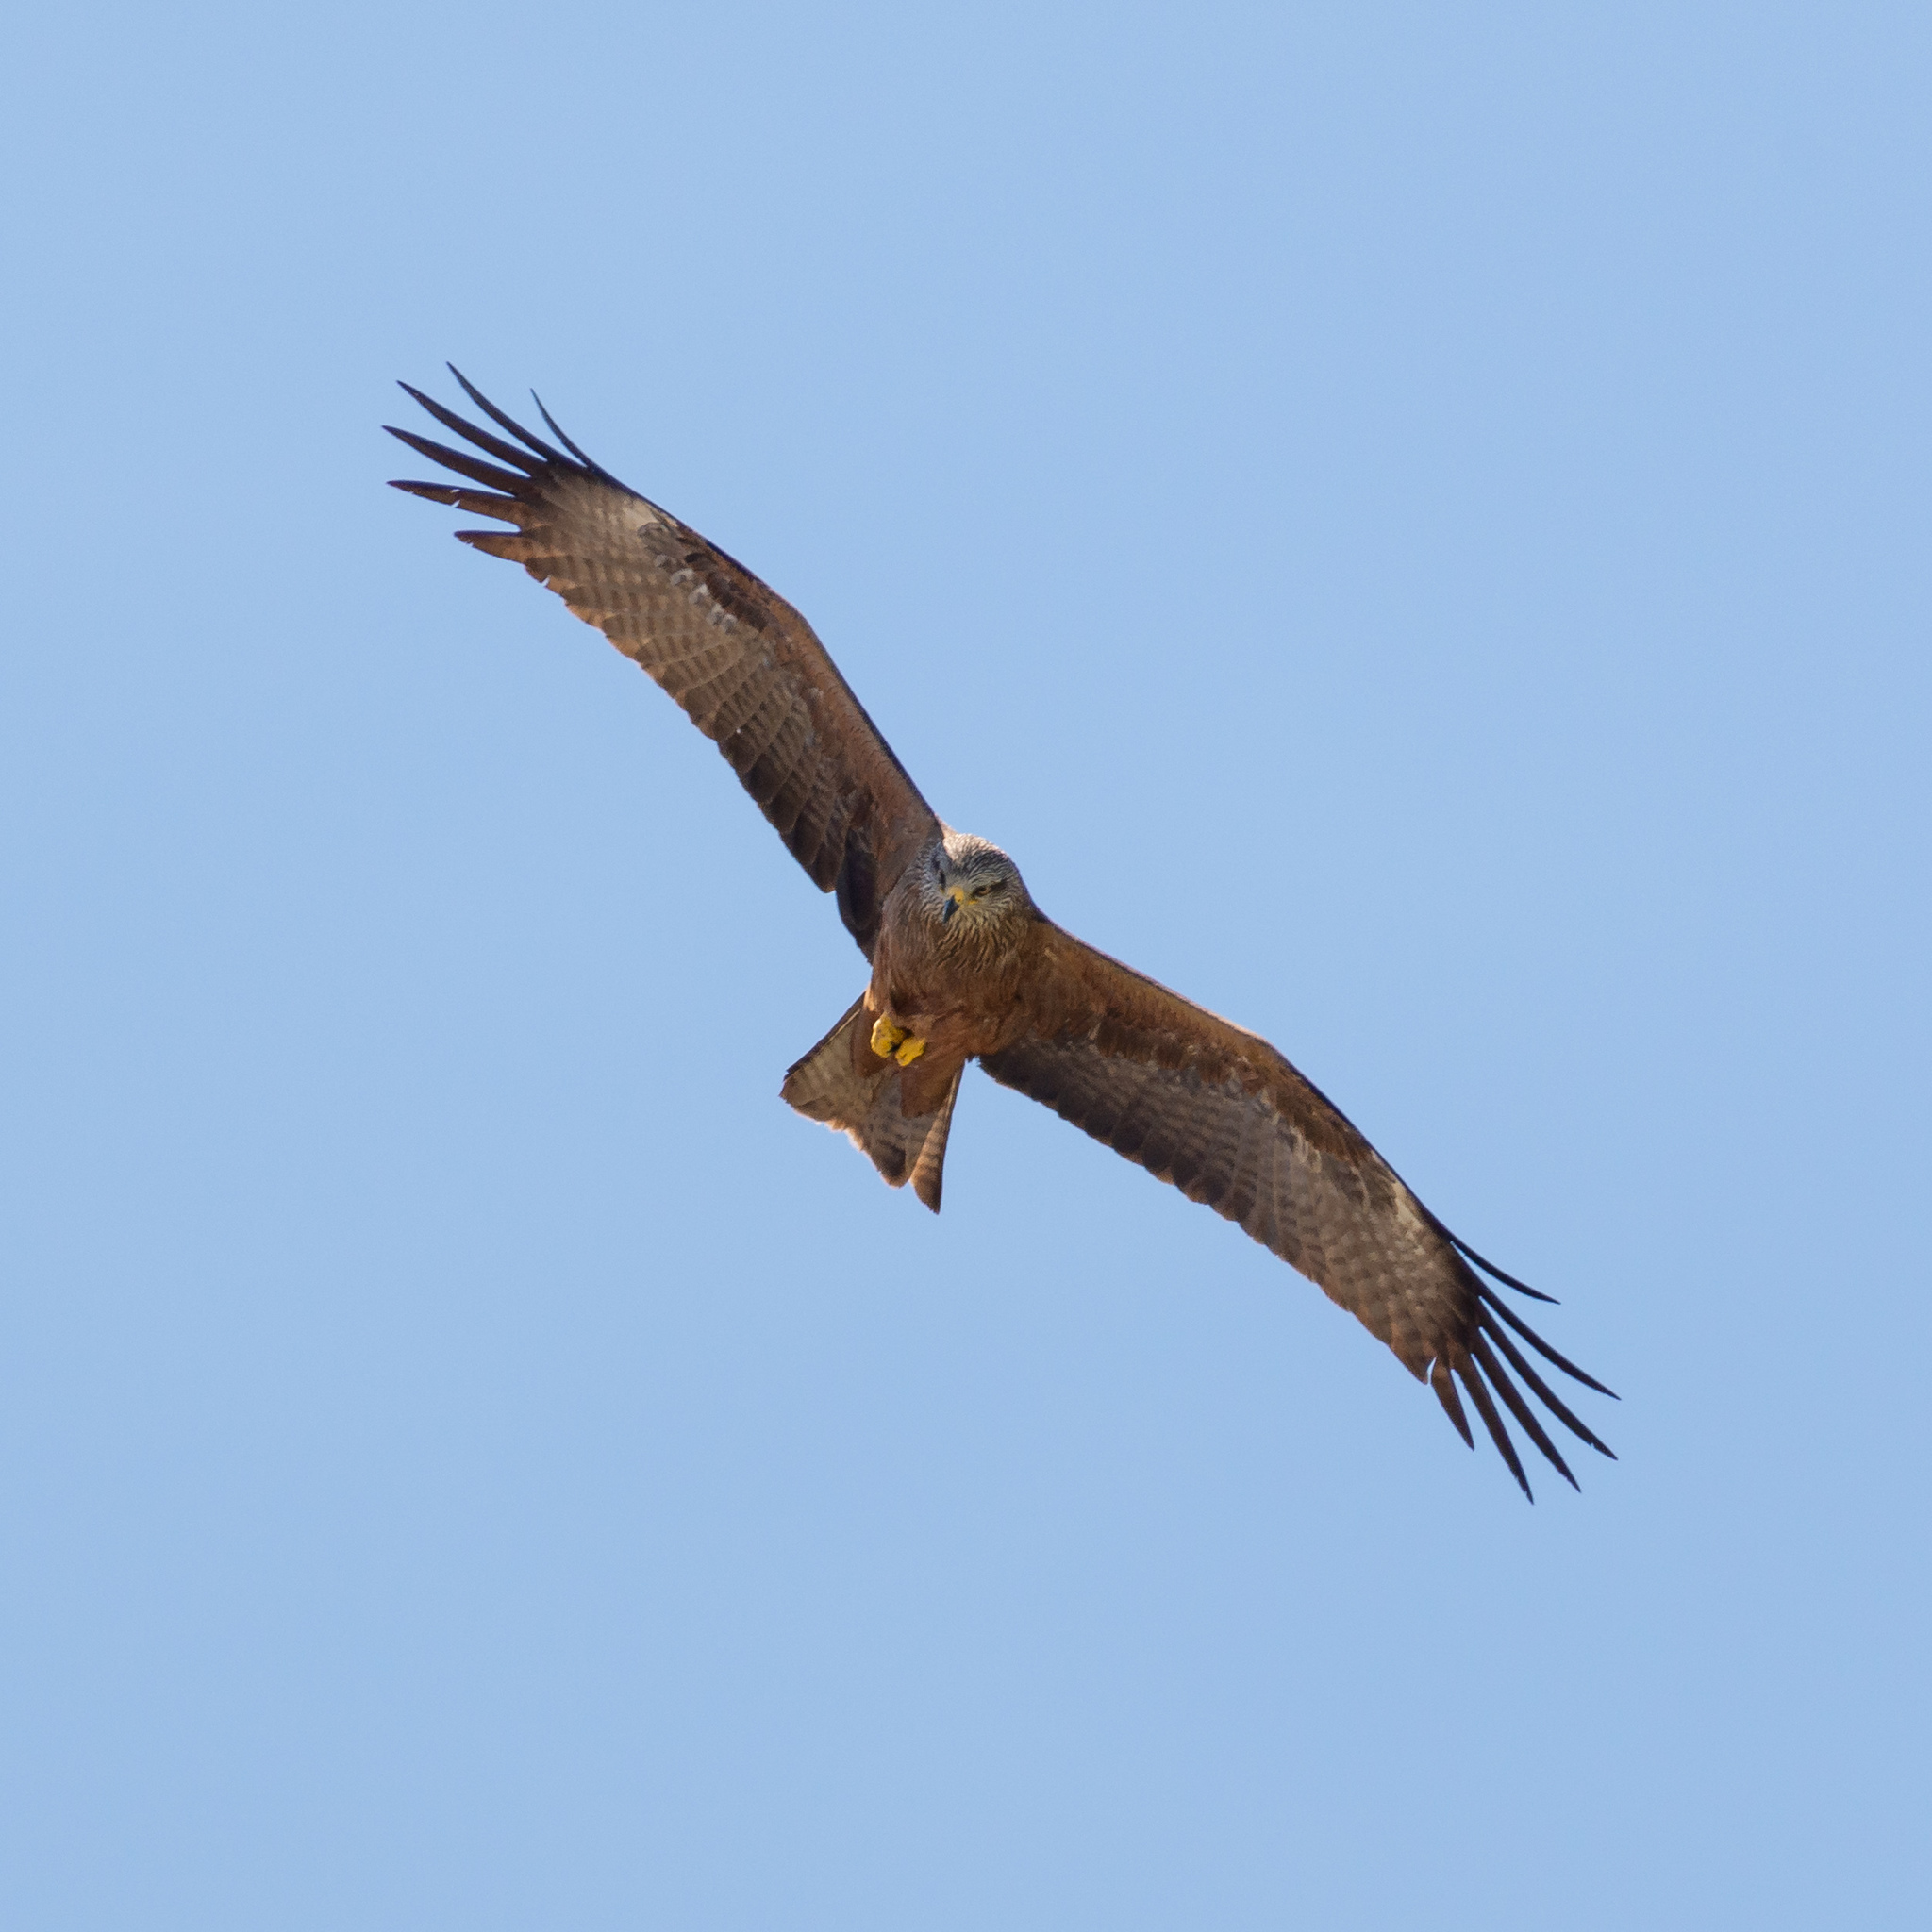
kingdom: Animalia
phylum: Chordata
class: Aves
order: Accipitriformes
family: Accipitridae
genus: Milvus
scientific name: Milvus migrans
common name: Black kite
